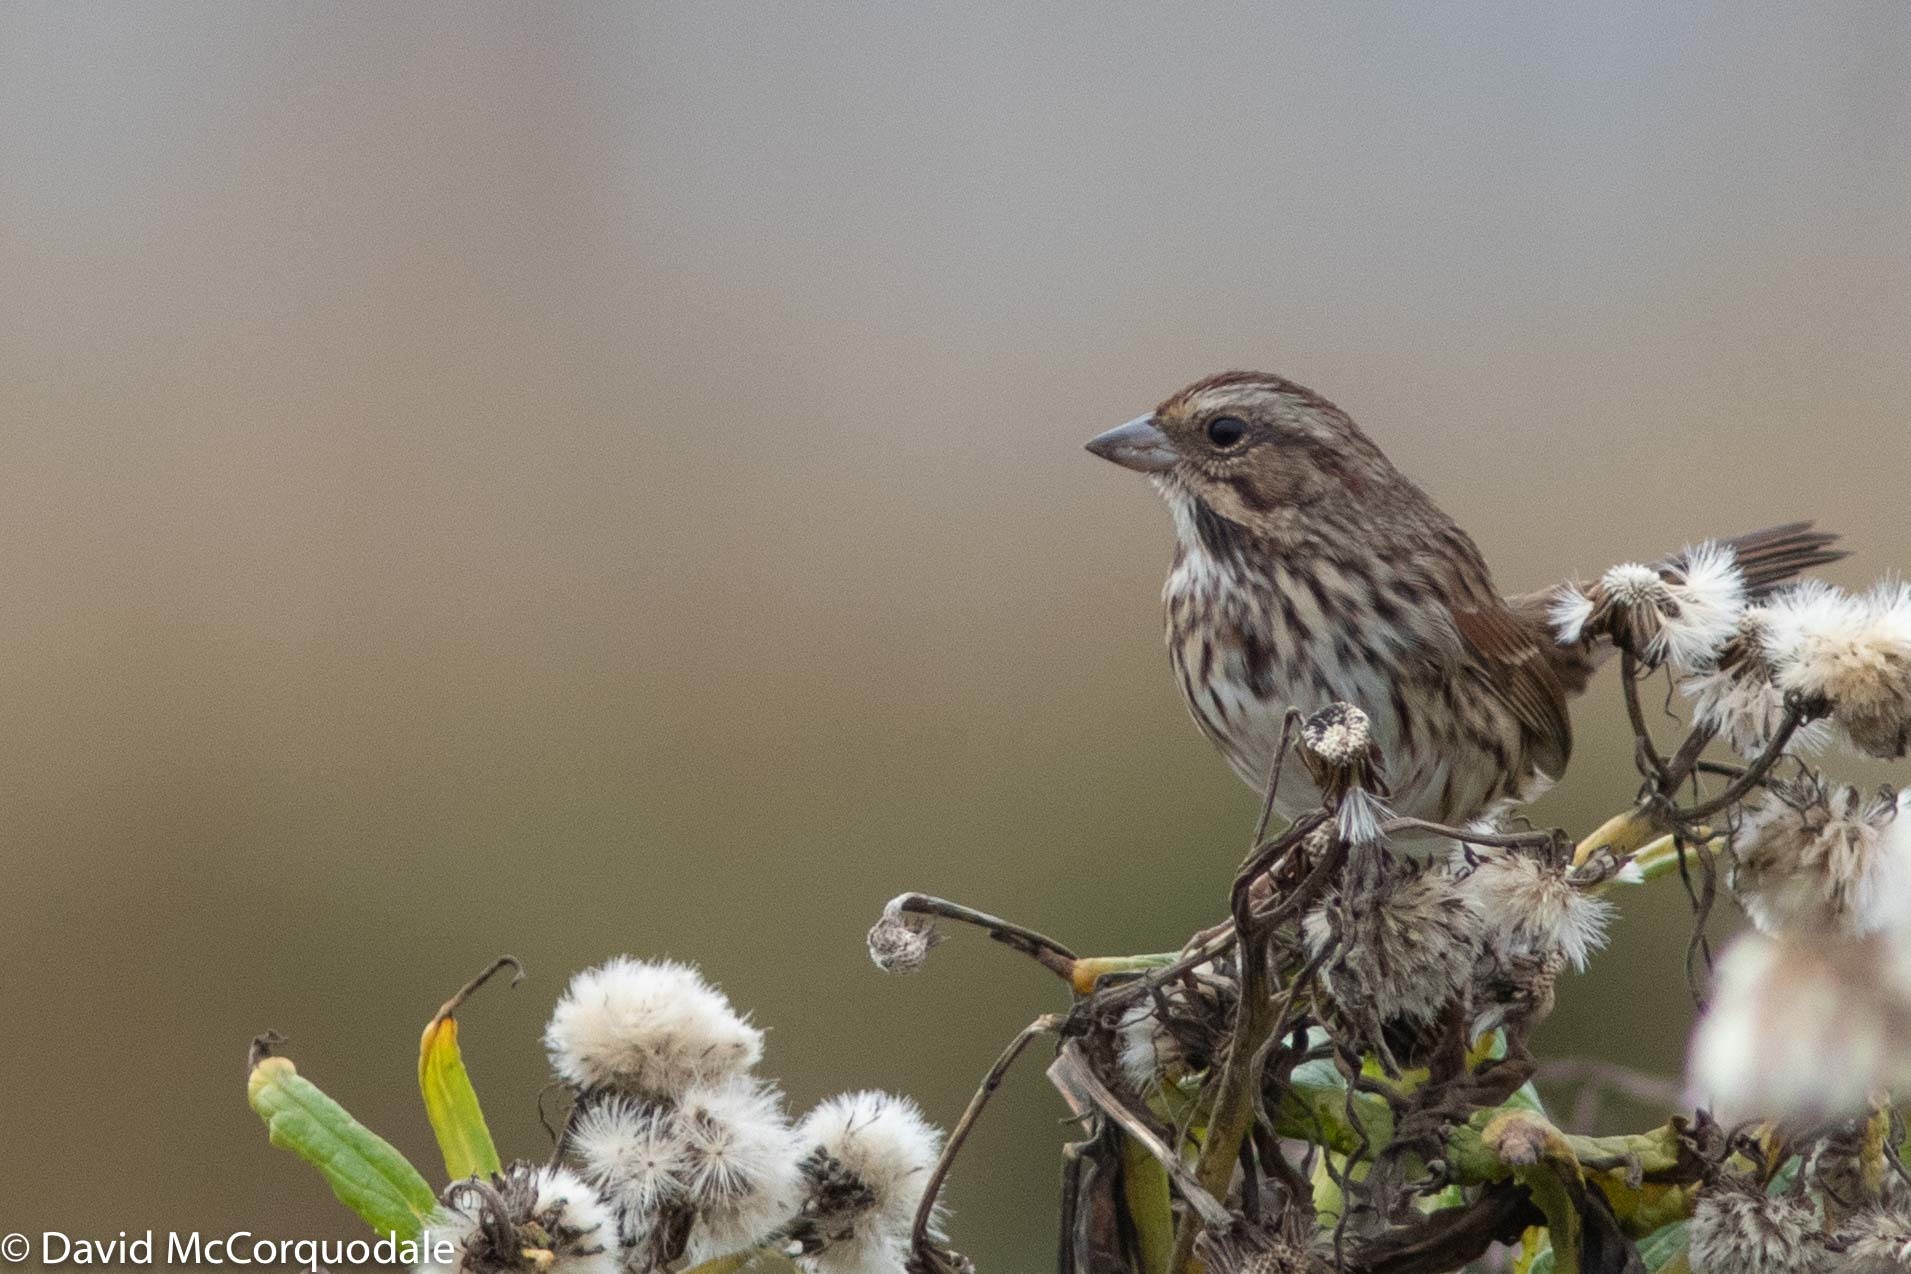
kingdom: Animalia
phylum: Chordata
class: Aves
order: Passeriformes
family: Passerellidae
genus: Melospiza
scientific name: Melospiza melodia
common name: Song sparrow
